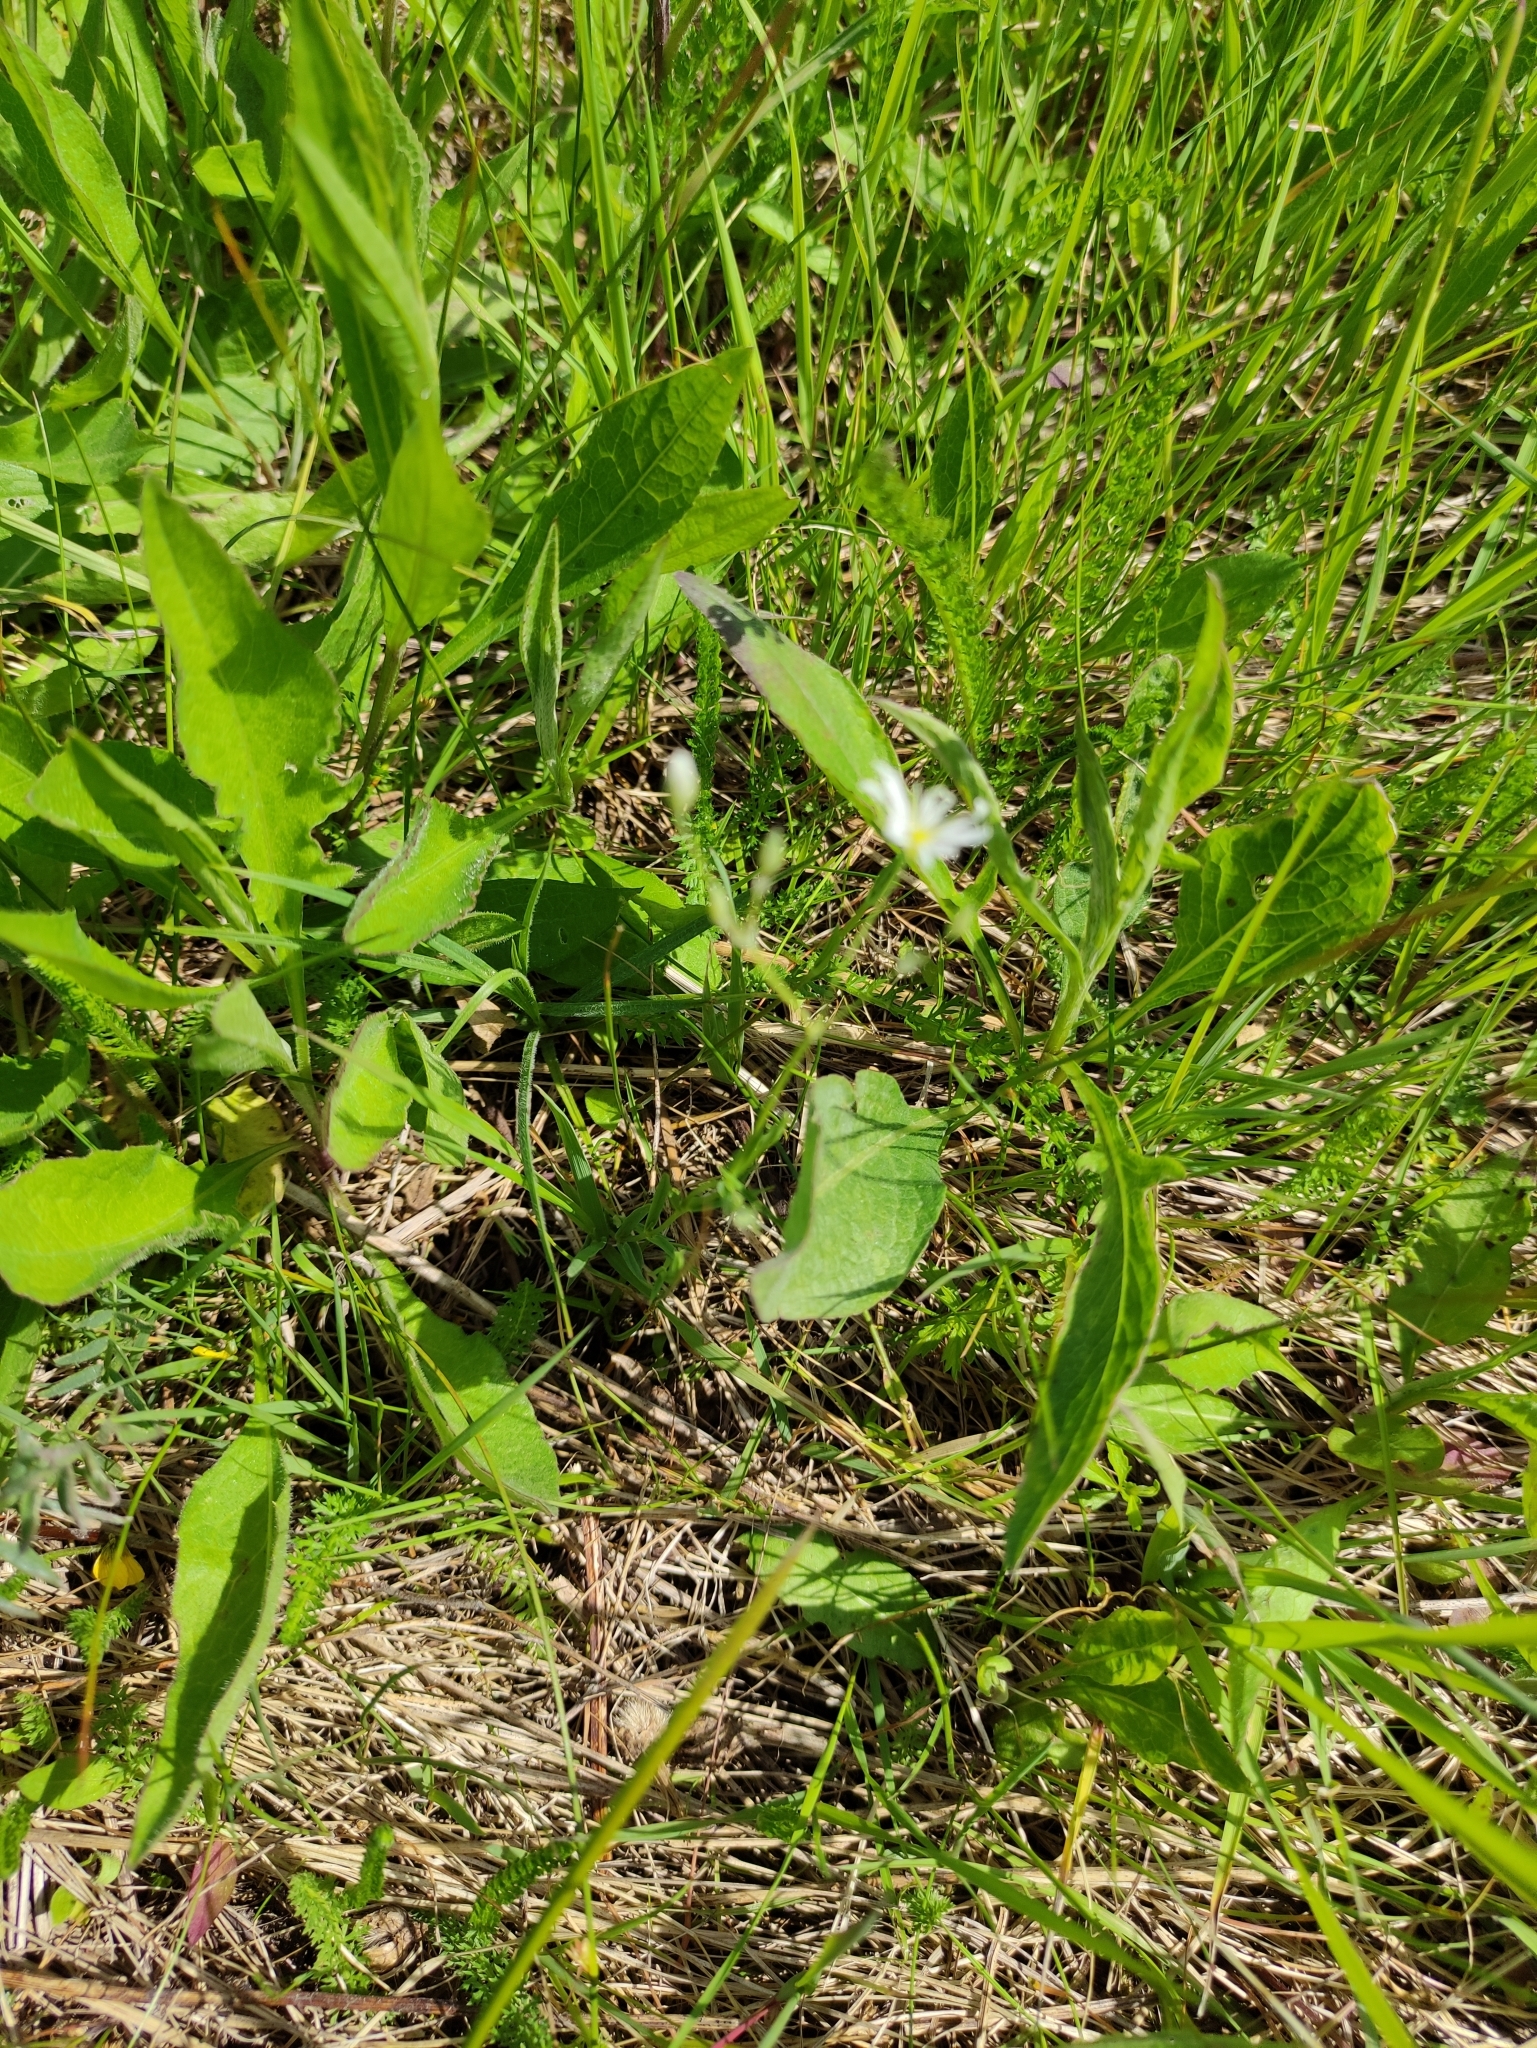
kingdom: Plantae
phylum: Tracheophyta
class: Magnoliopsida
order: Caryophyllales
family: Caryophyllaceae
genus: Stellaria
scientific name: Stellaria graminea
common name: Grass-like starwort
